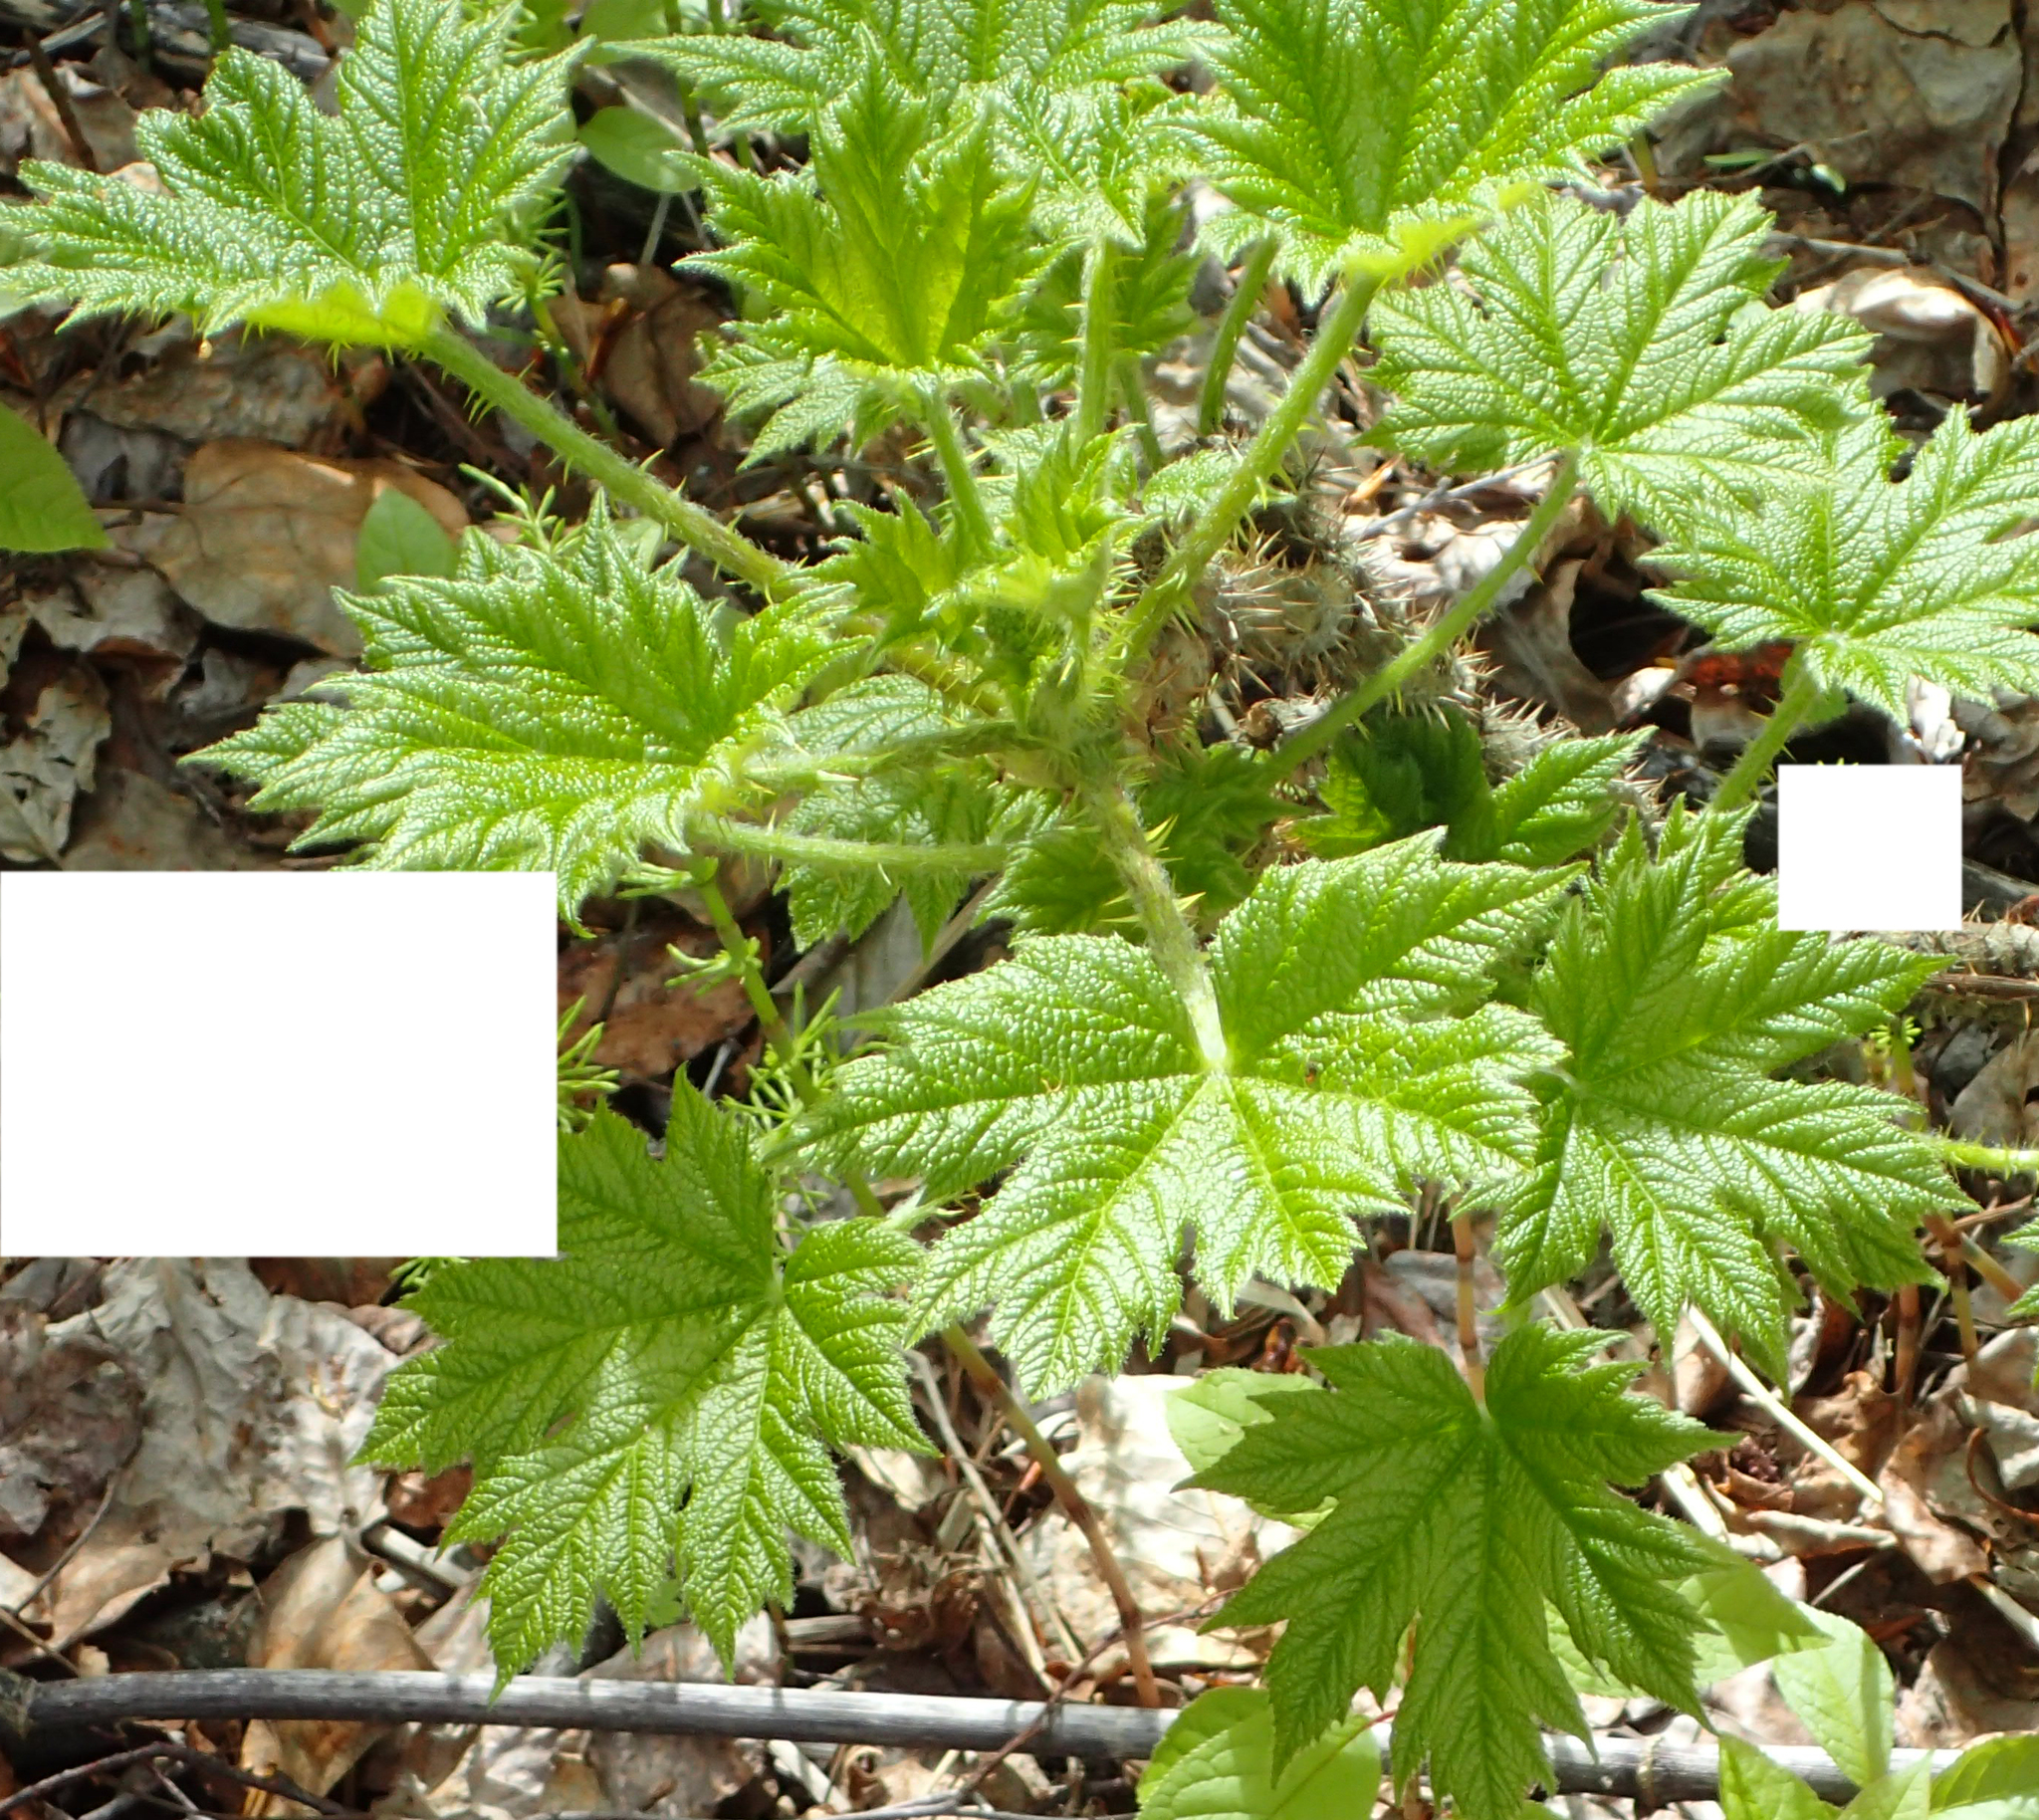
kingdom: Plantae
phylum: Tracheophyta
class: Magnoliopsida
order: Apiales
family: Araliaceae
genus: Oplopanax
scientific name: Oplopanax horridus
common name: Devil's walking-stick
